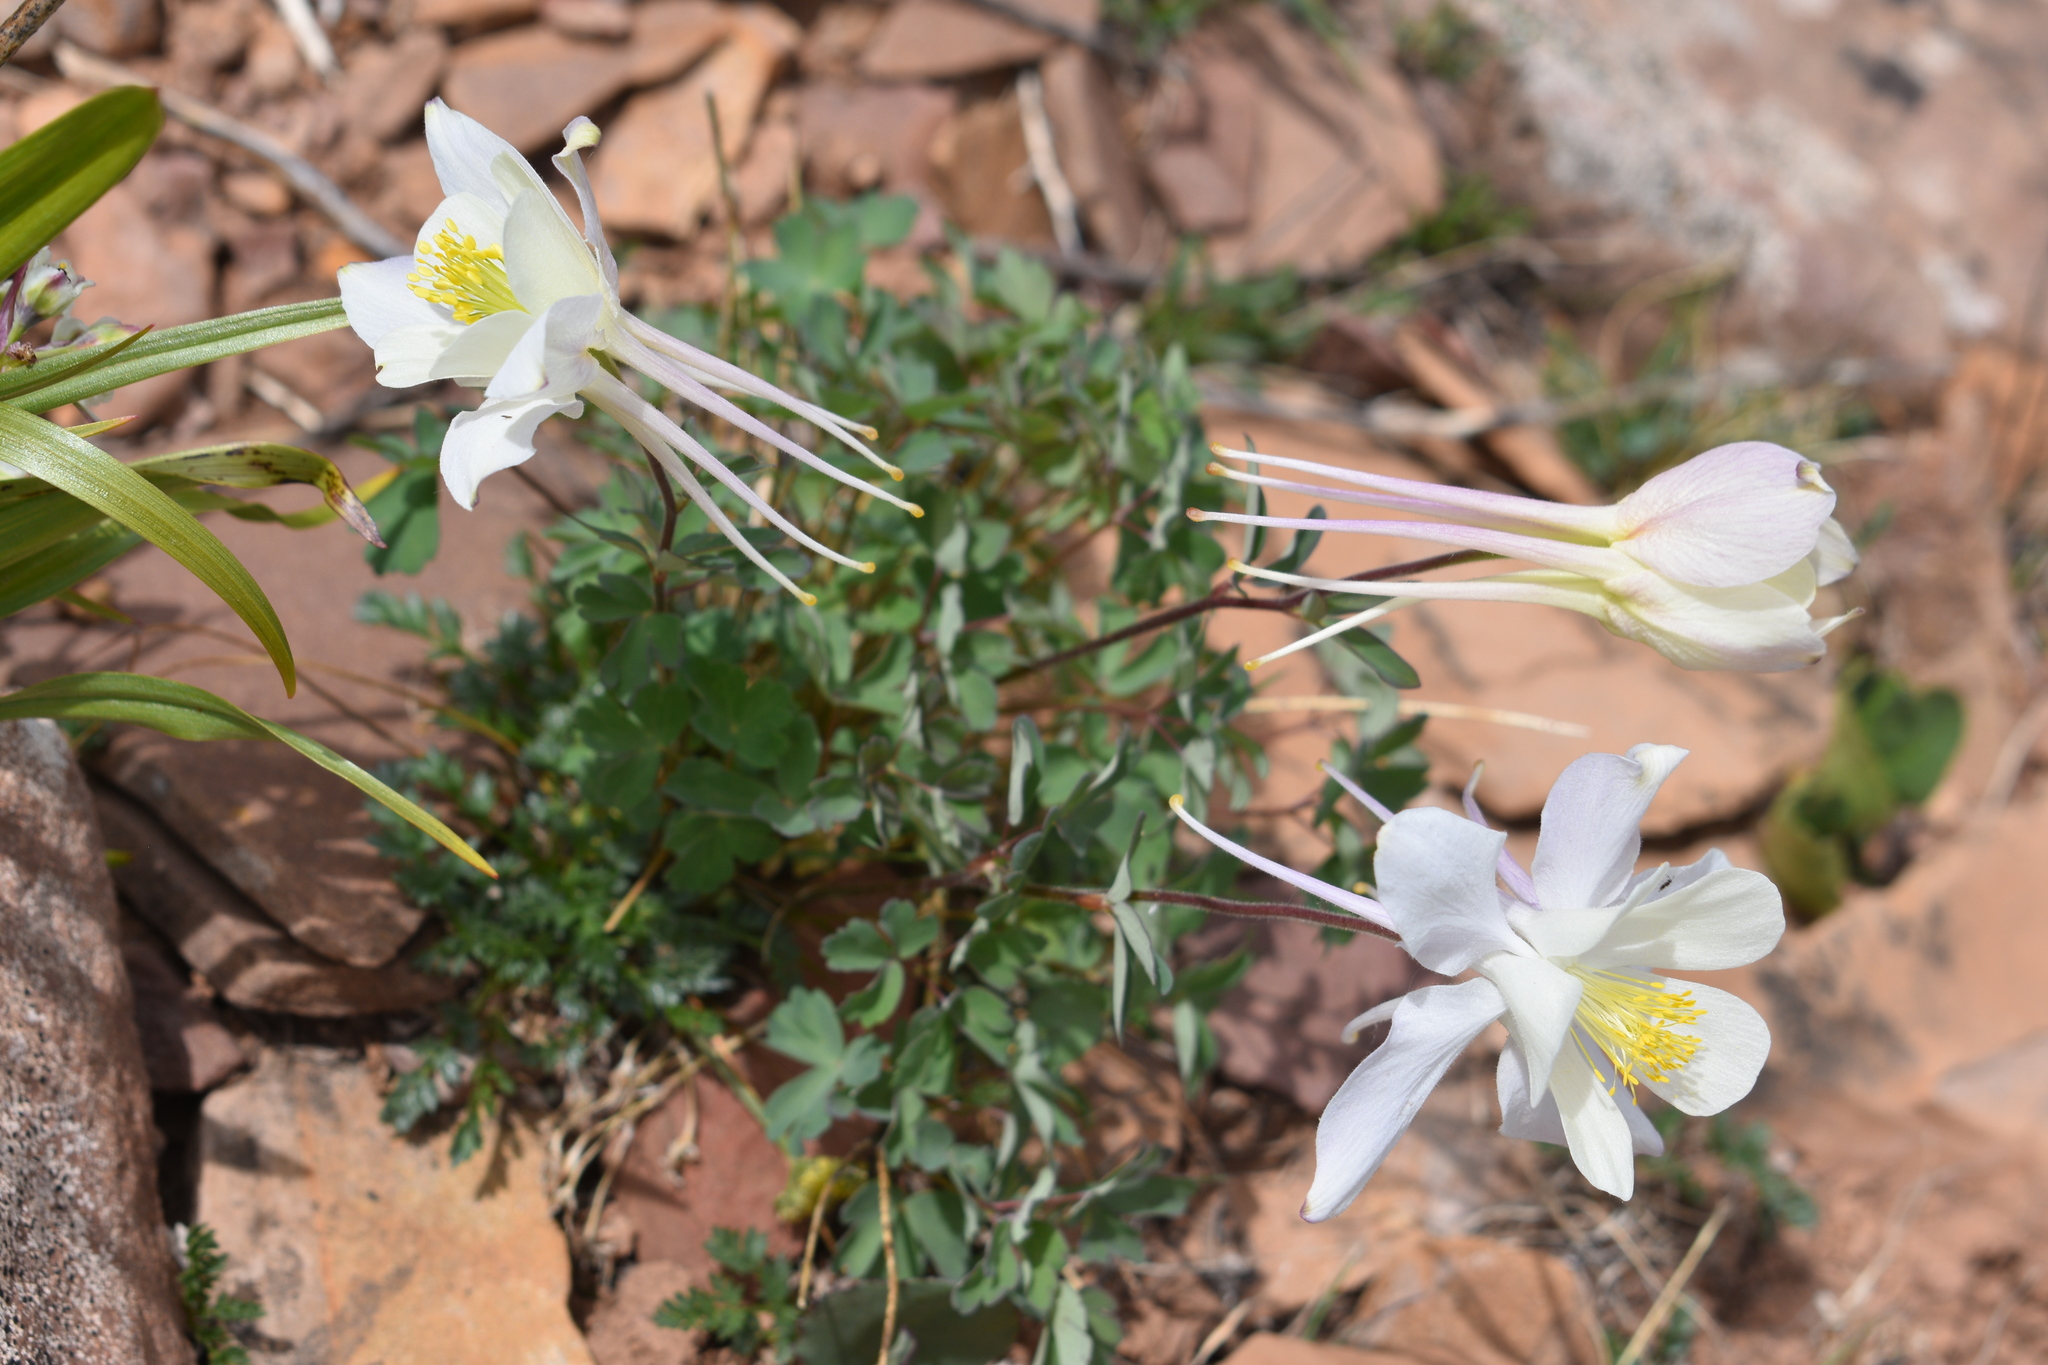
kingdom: Plantae
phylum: Tracheophyta
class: Magnoliopsida
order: Ranunculales
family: Ranunculaceae
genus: Aquilegia
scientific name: Aquilegia coerulea
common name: Rocky mountain columbine
